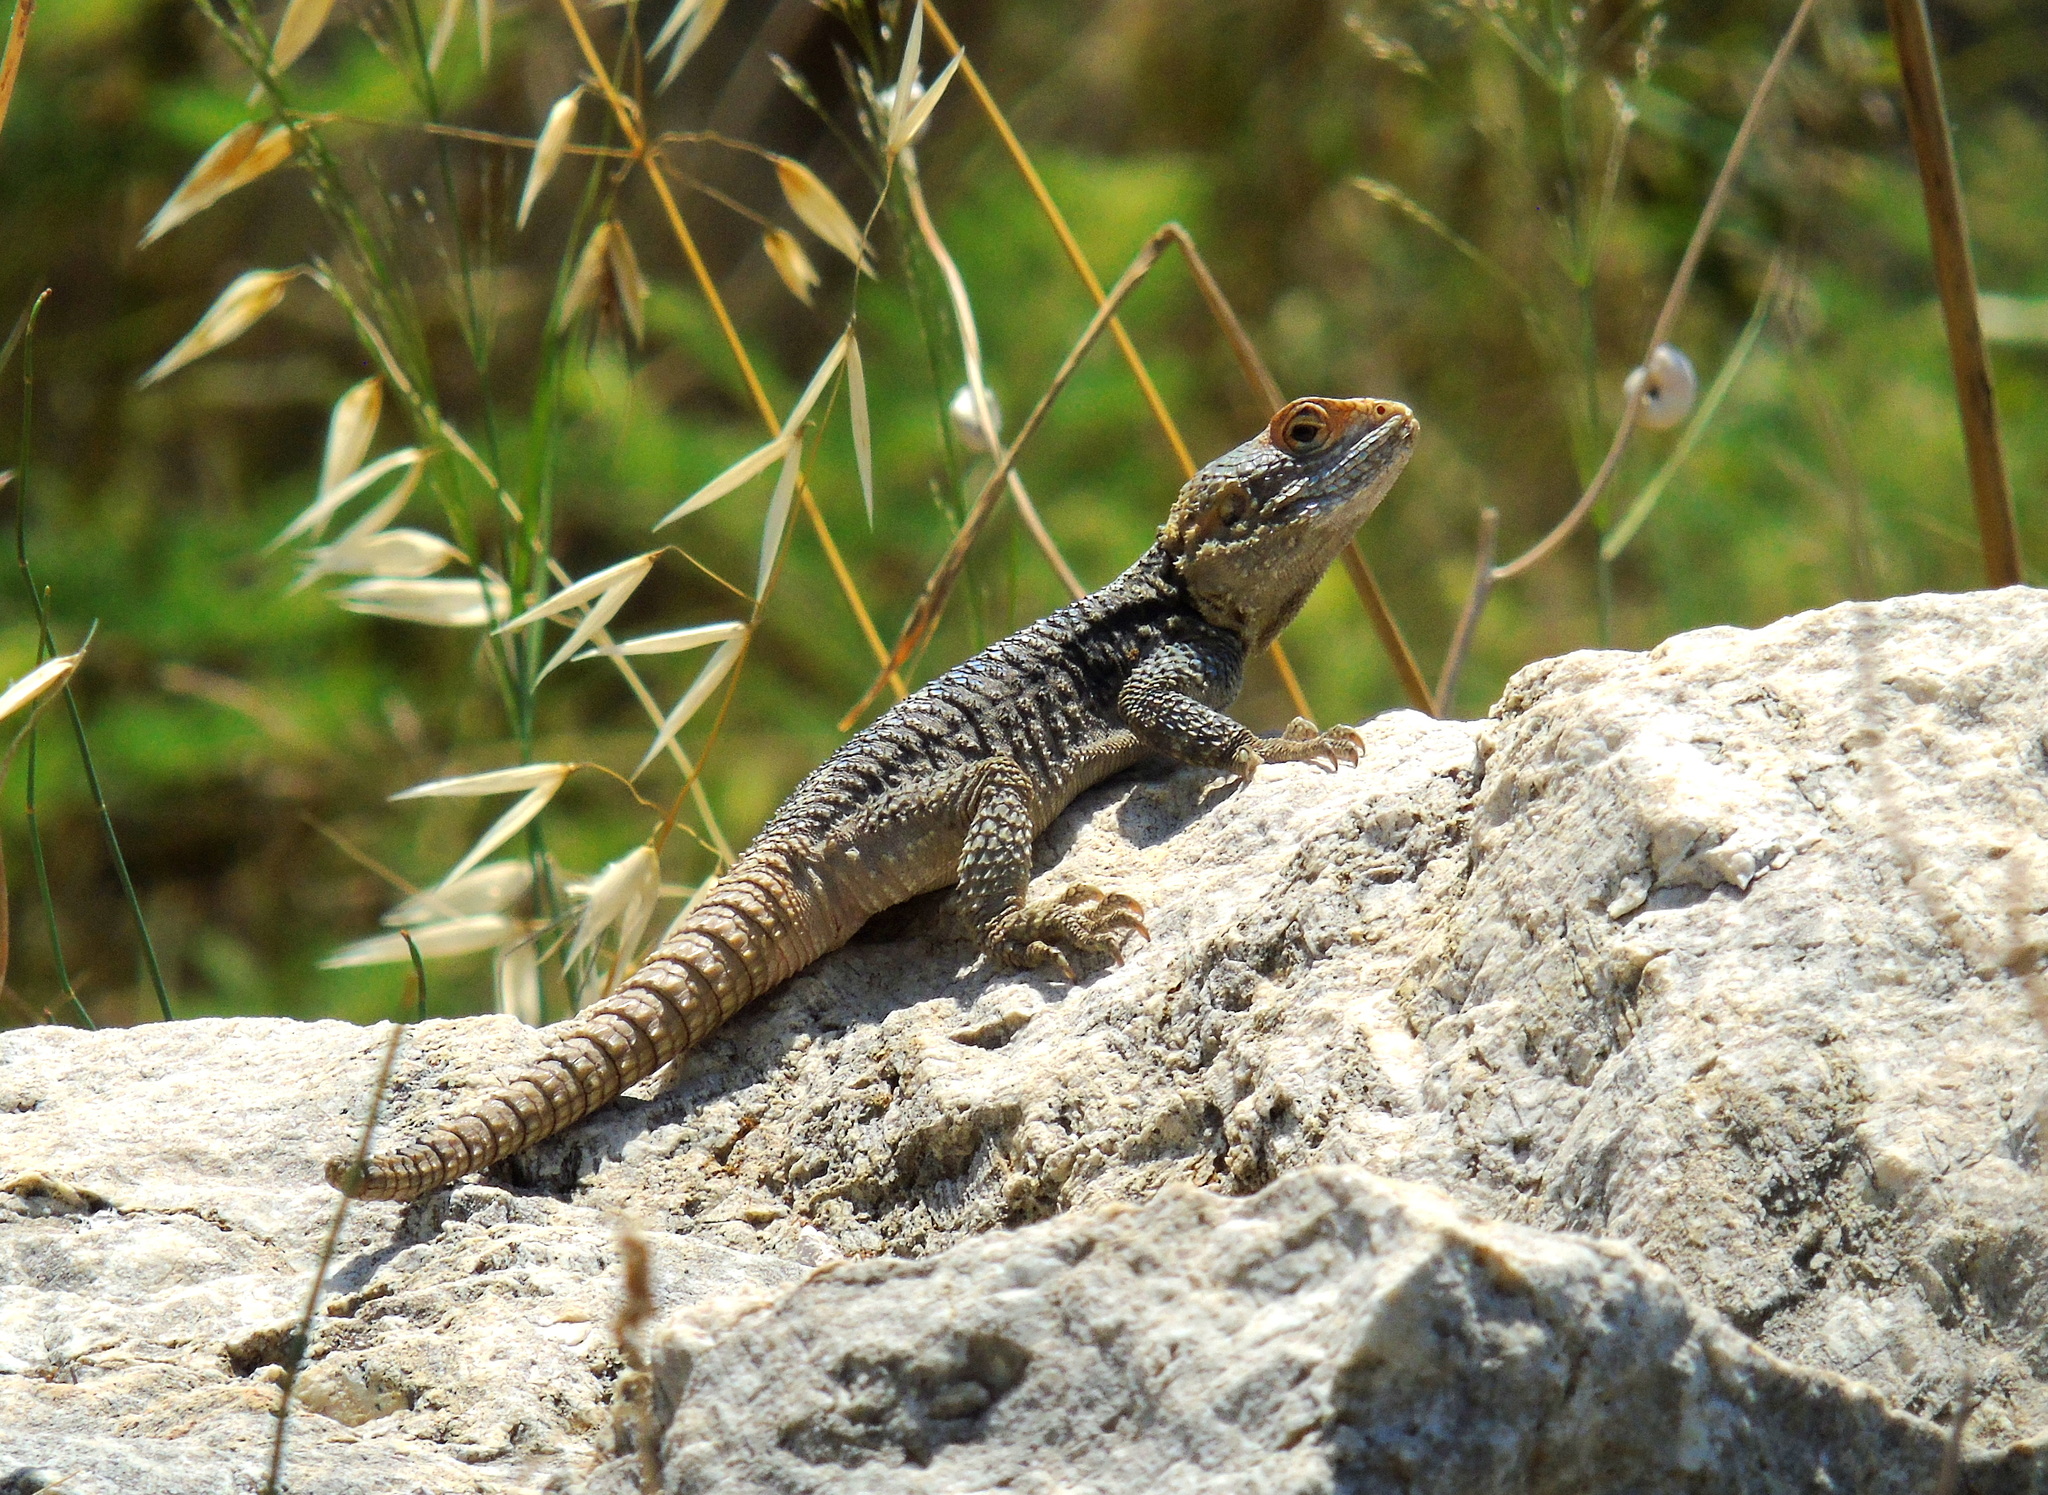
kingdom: Animalia
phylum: Chordata
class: Squamata
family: Agamidae
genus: Stellagama
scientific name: Stellagama stellio
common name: Starred agama
